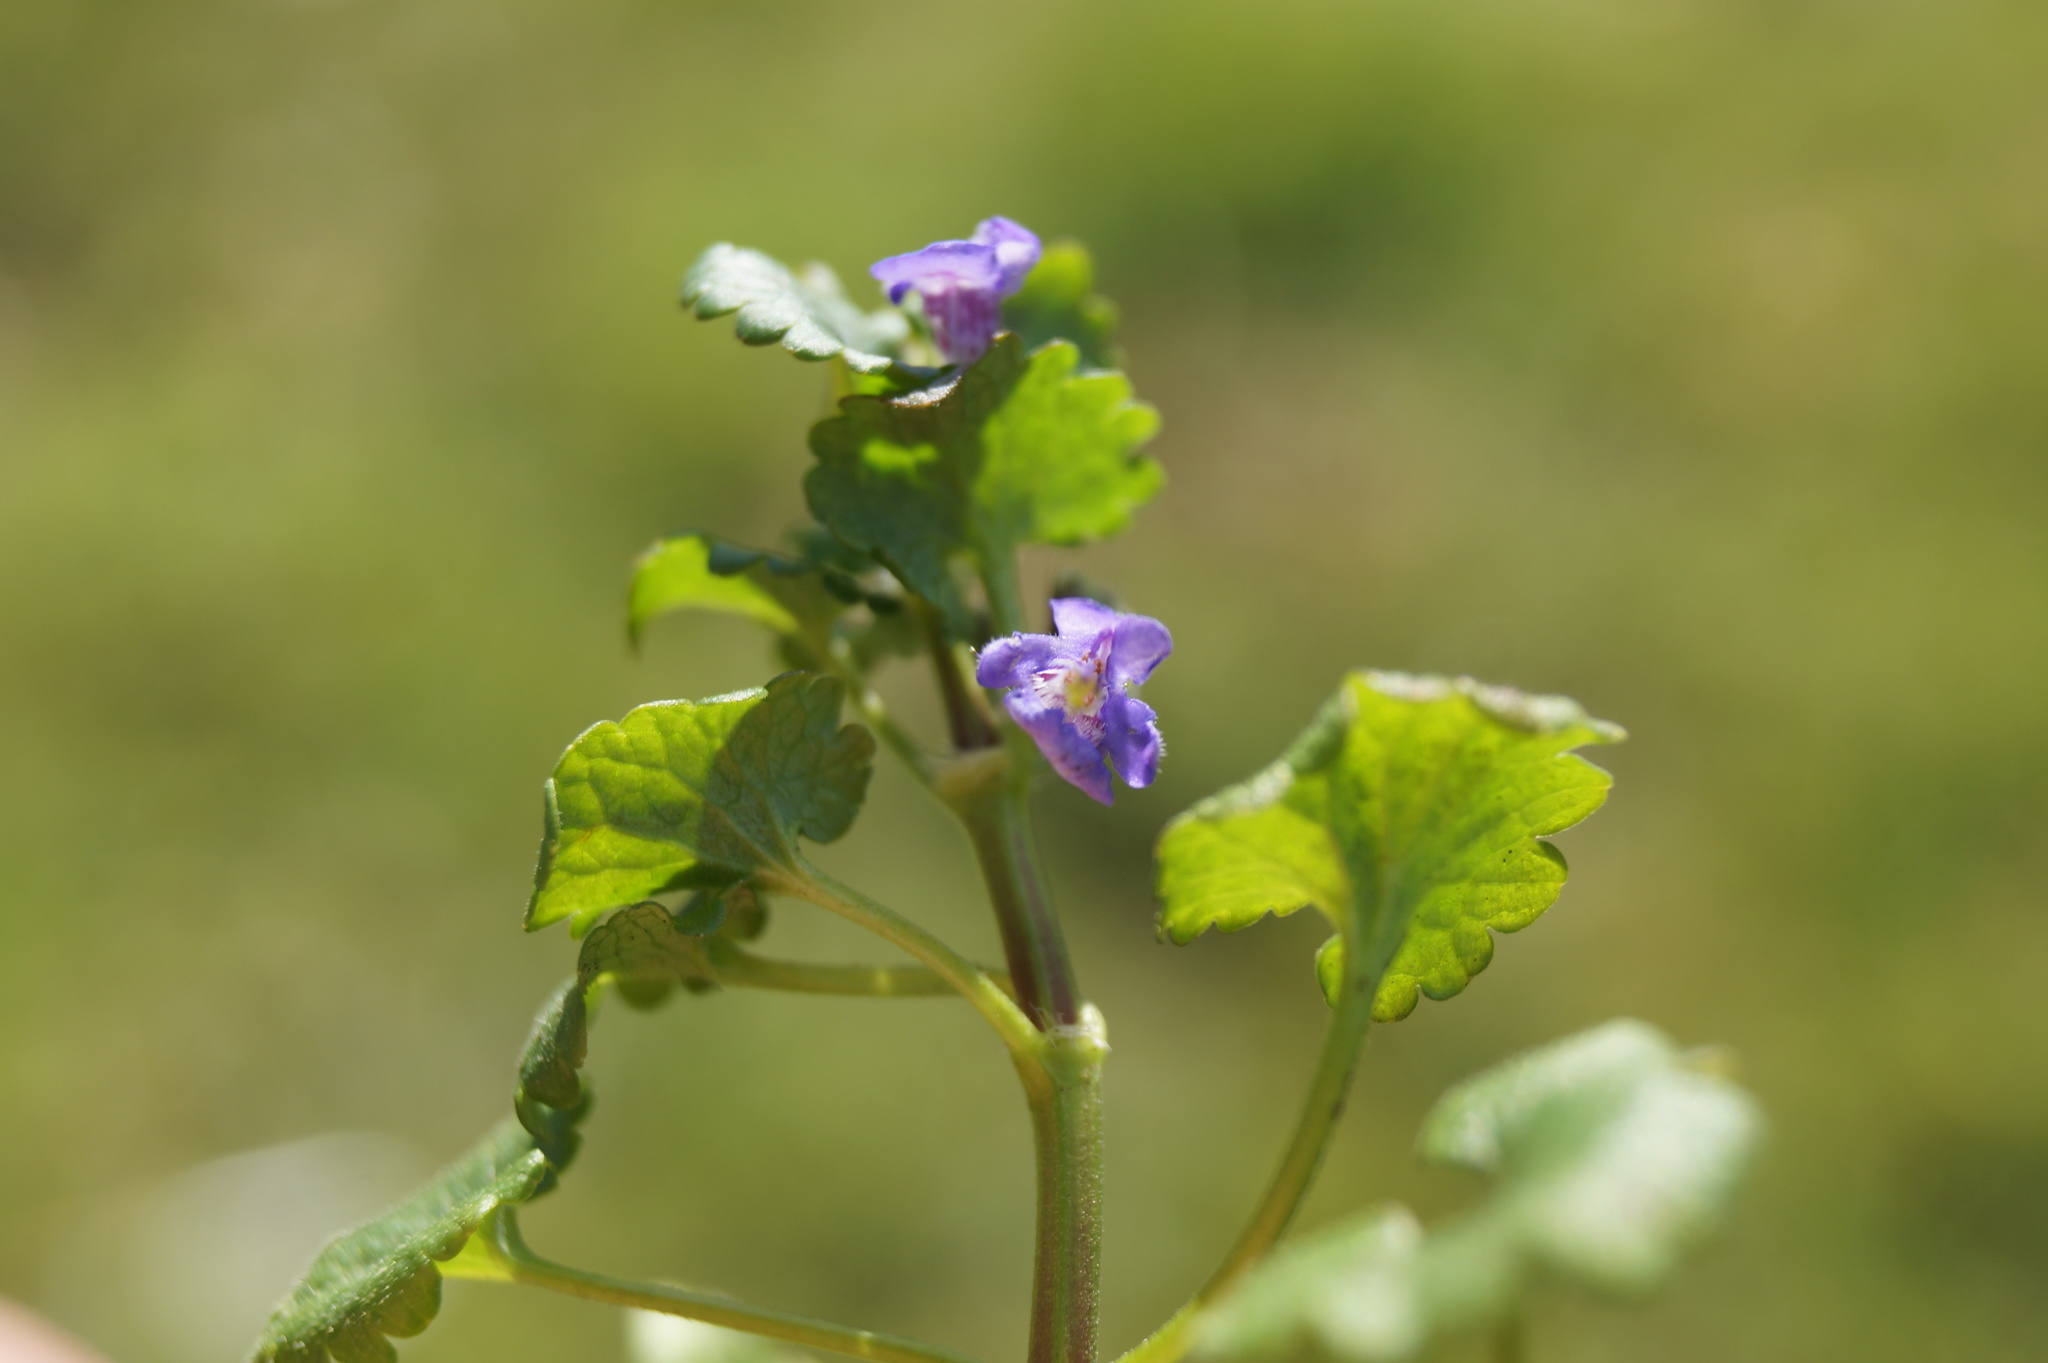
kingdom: Plantae
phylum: Tracheophyta
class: Magnoliopsida
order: Lamiales
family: Lamiaceae
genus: Glechoma
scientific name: Glechoma hederacea
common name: Ground ivy
